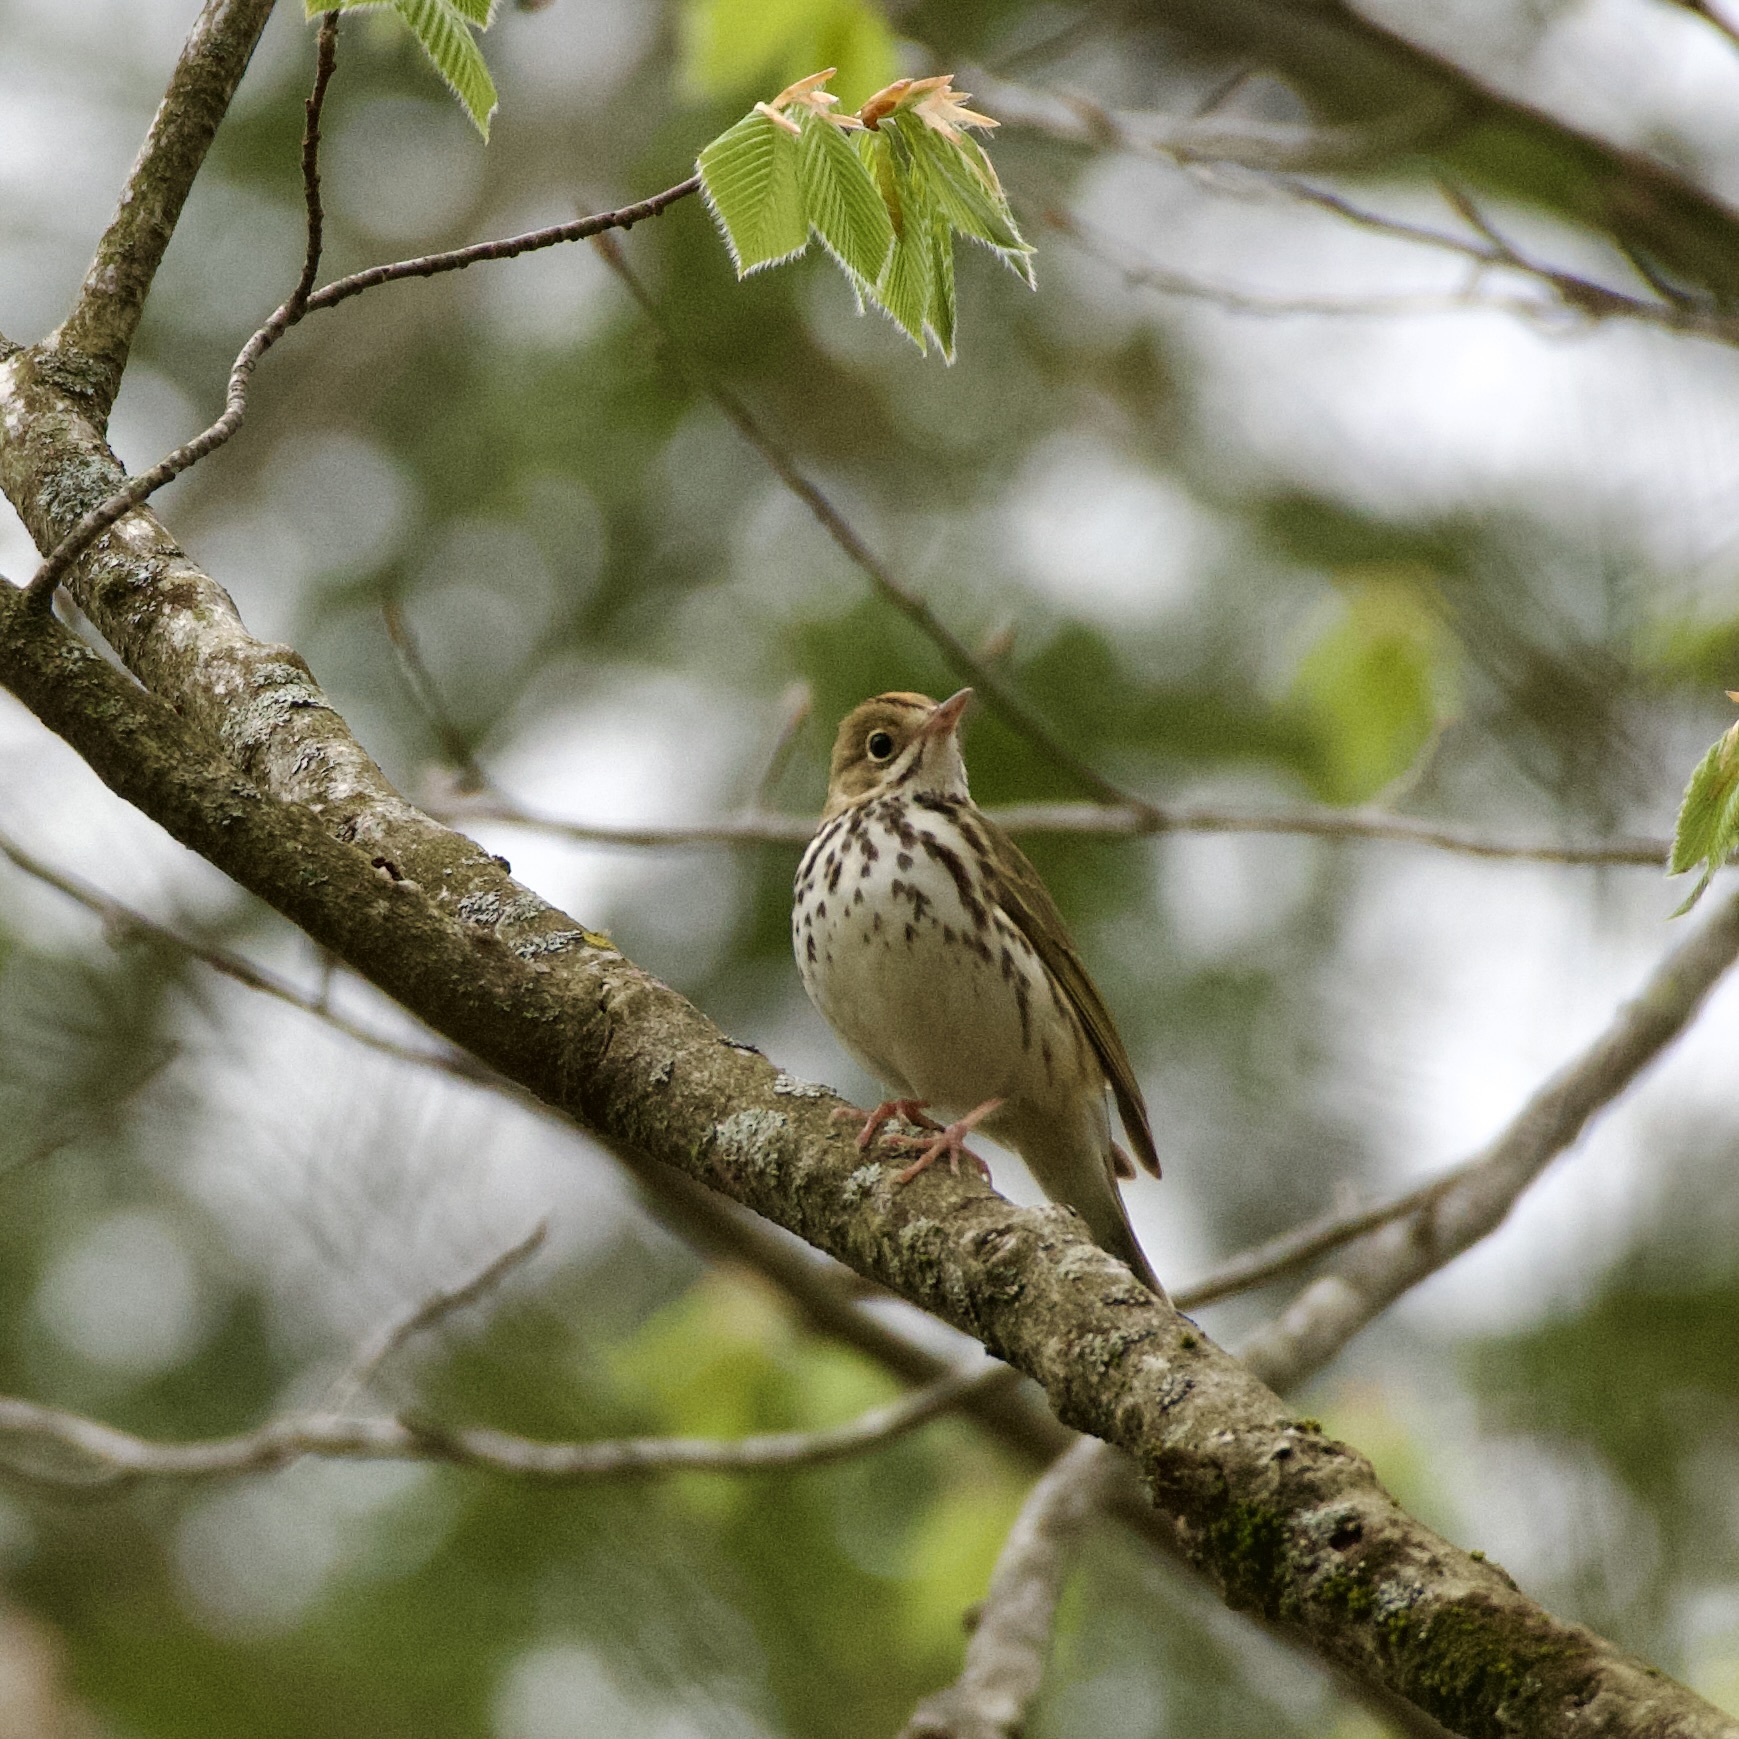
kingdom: Animalia
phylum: Chordata
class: Aves
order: Passeriformes
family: Parulidae
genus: Seiurus
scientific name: Seiurus aurocapilla
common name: Ovenbird
